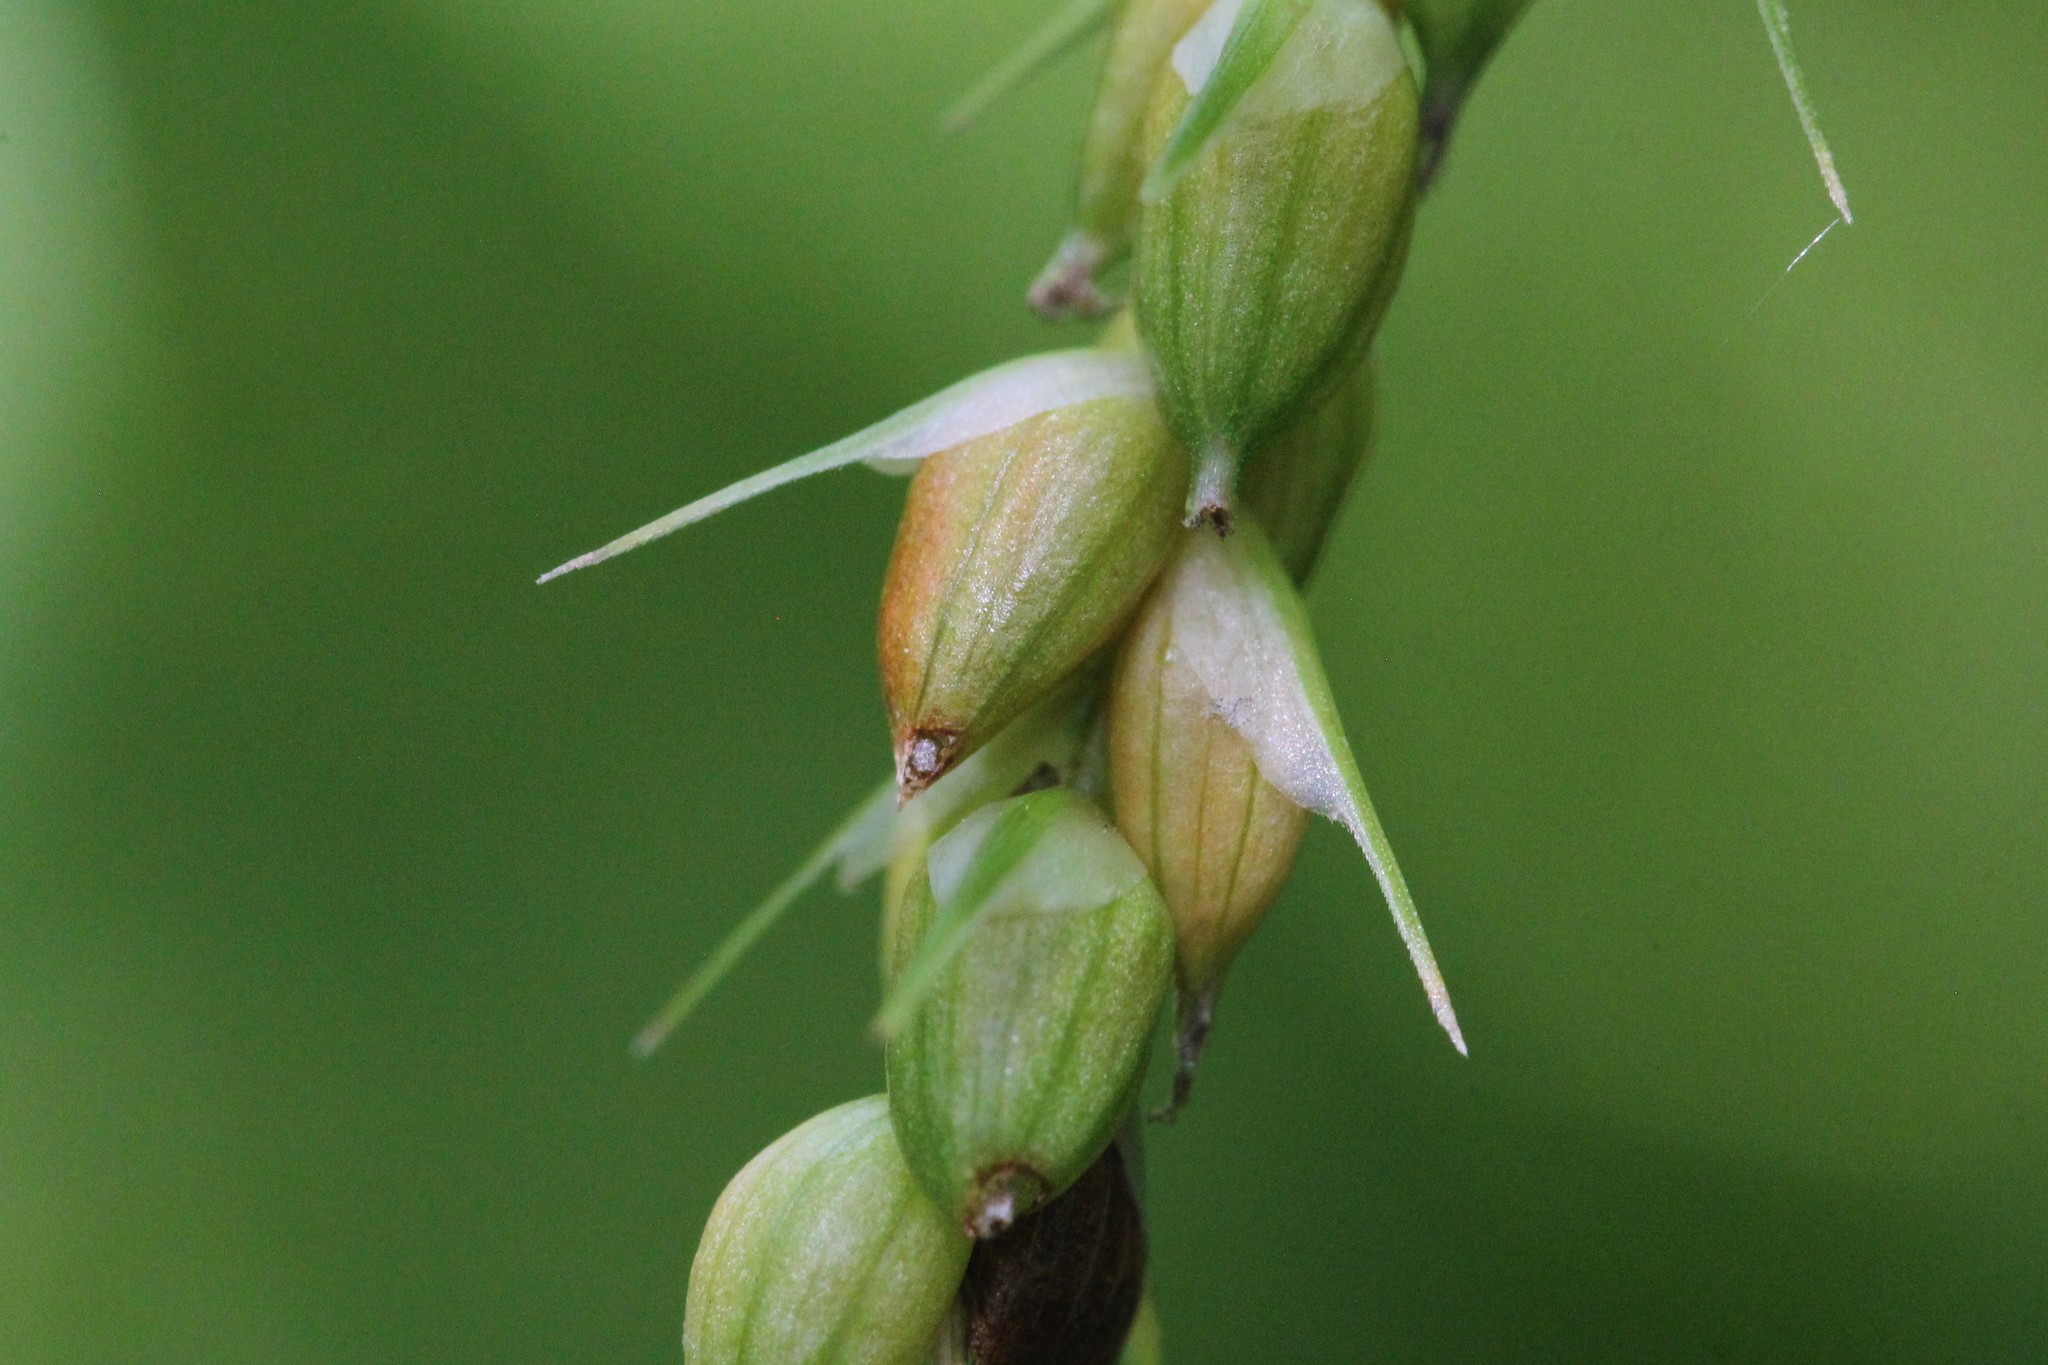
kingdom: Plantae
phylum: Tracheophyta
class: Liliopsida
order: Poales
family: Cyperaceae
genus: Carex
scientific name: Carex davisii
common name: Davis' sedge
